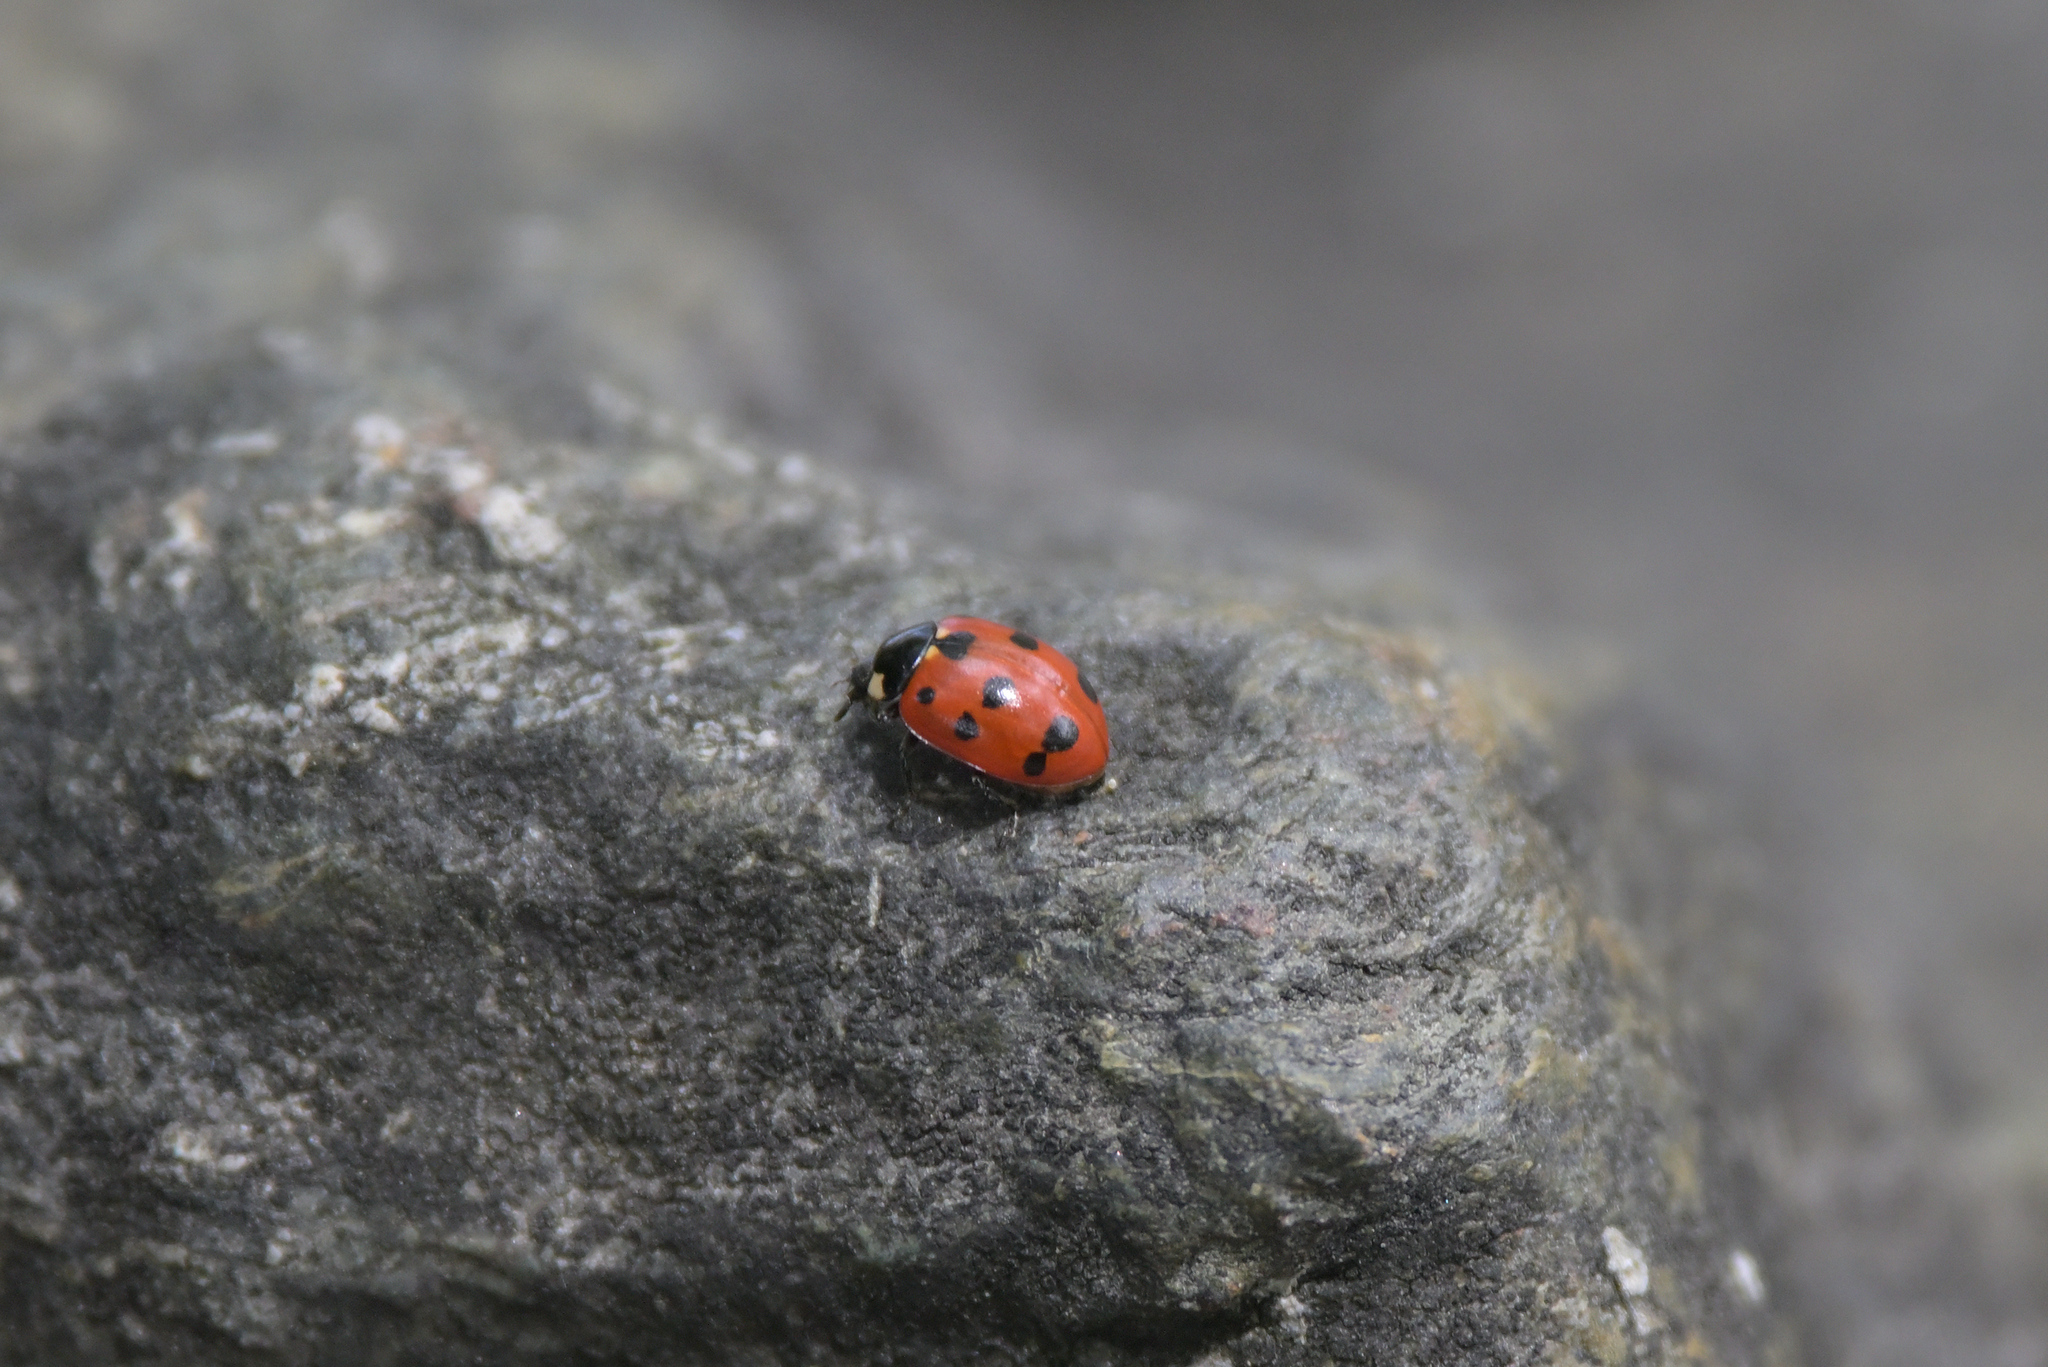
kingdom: Animalia
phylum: Arthropoda
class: Insecta
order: Coleoptera
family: Coccinellidae
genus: Coccinella
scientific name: Coccinella undecimpunctata
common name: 11-spot ladybird
